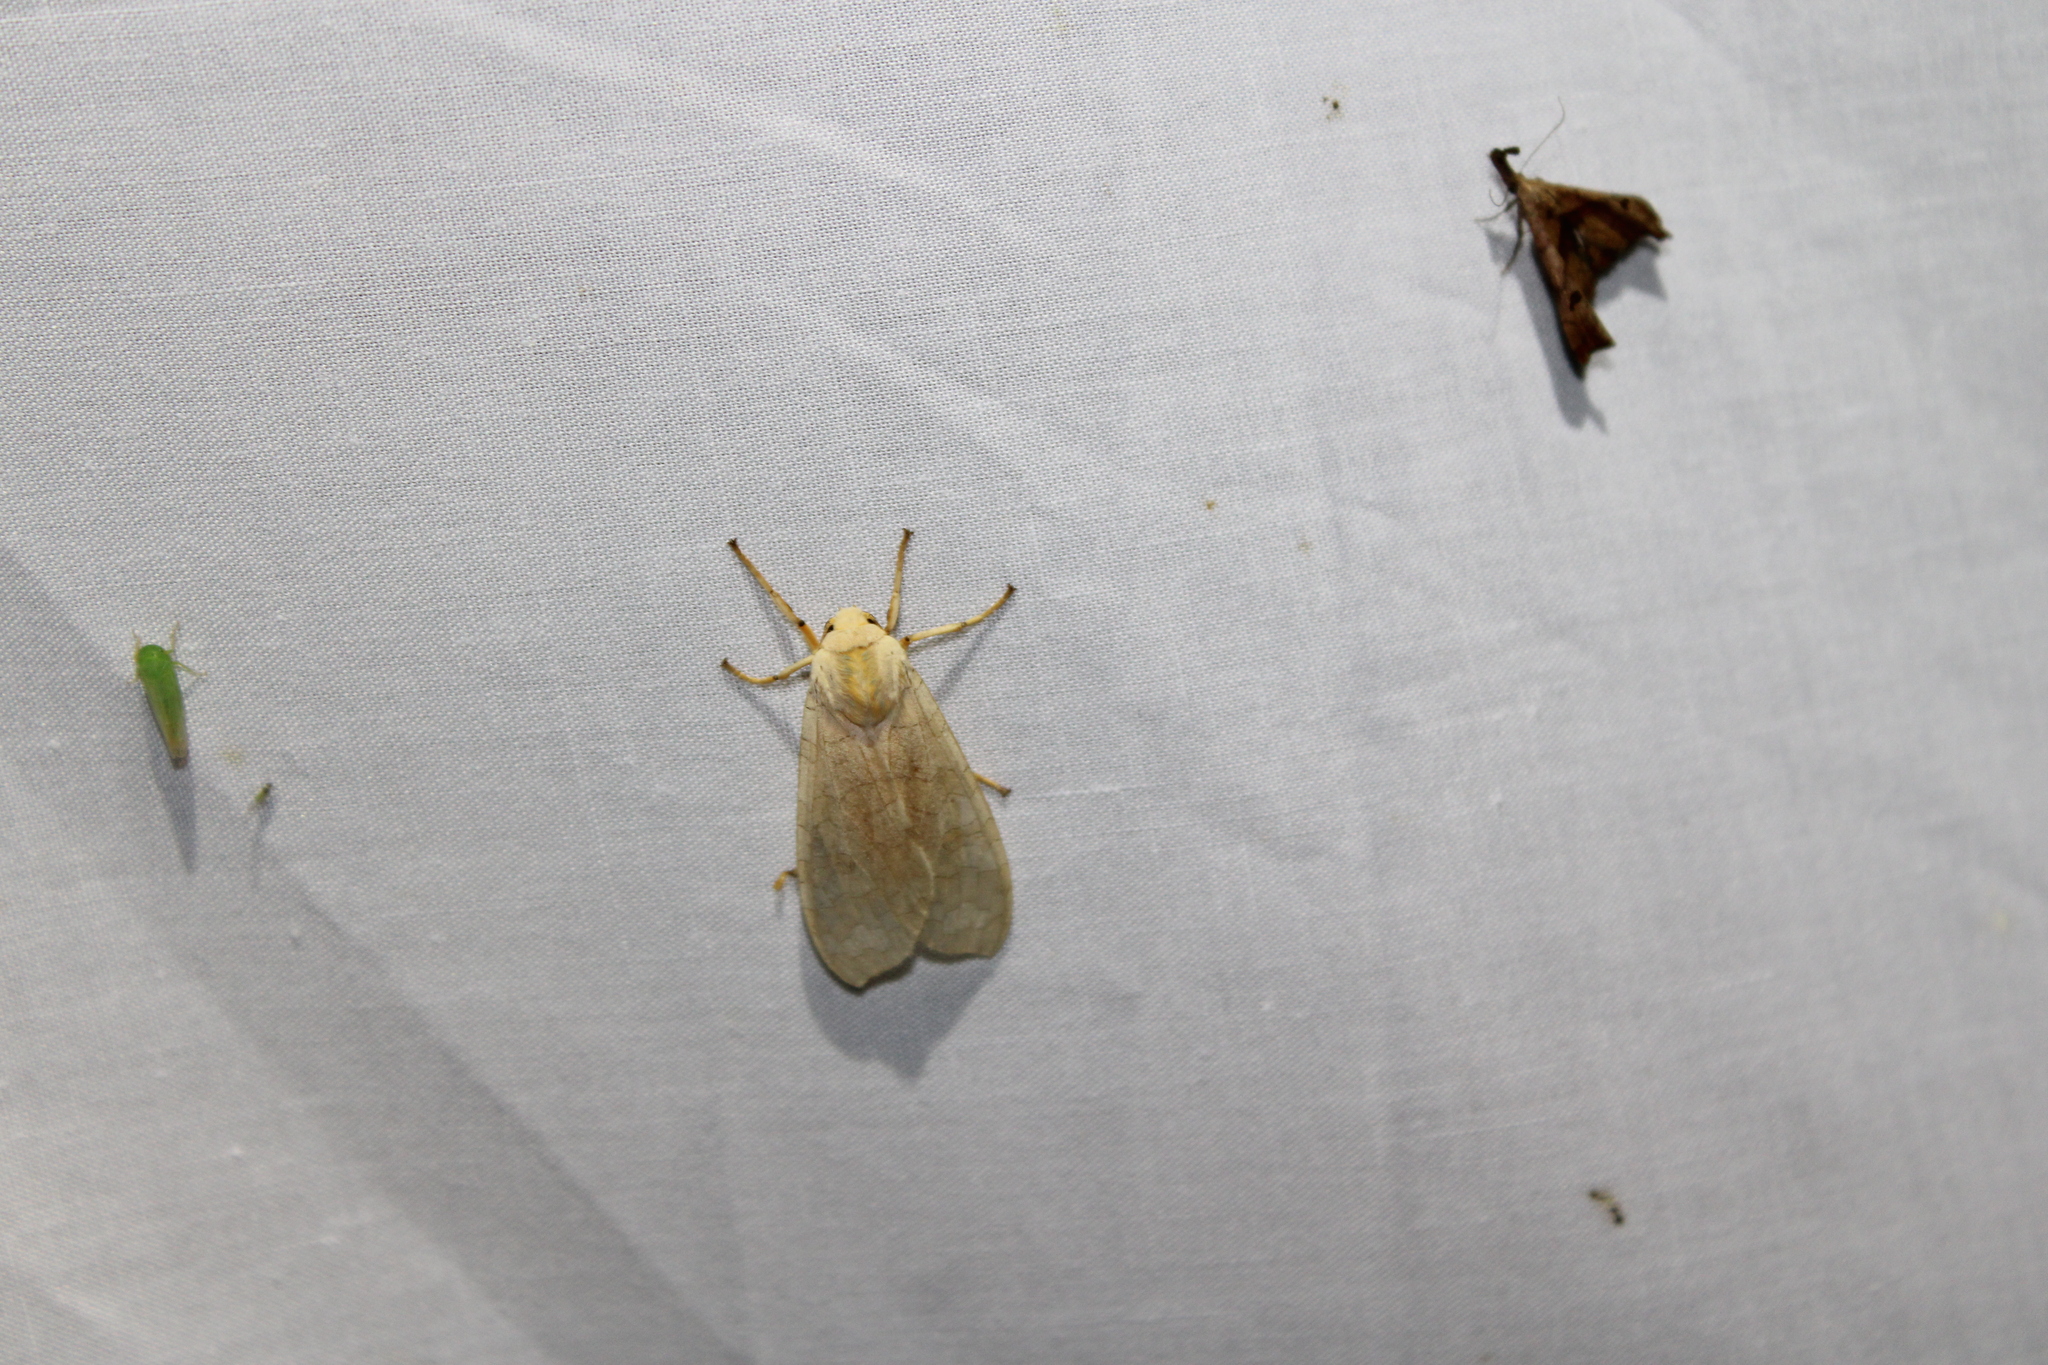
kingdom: Animalia
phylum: Arthropoda
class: Insecta
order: Lepidoptera
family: Erebidae
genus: Halysidota
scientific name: Halysidota
